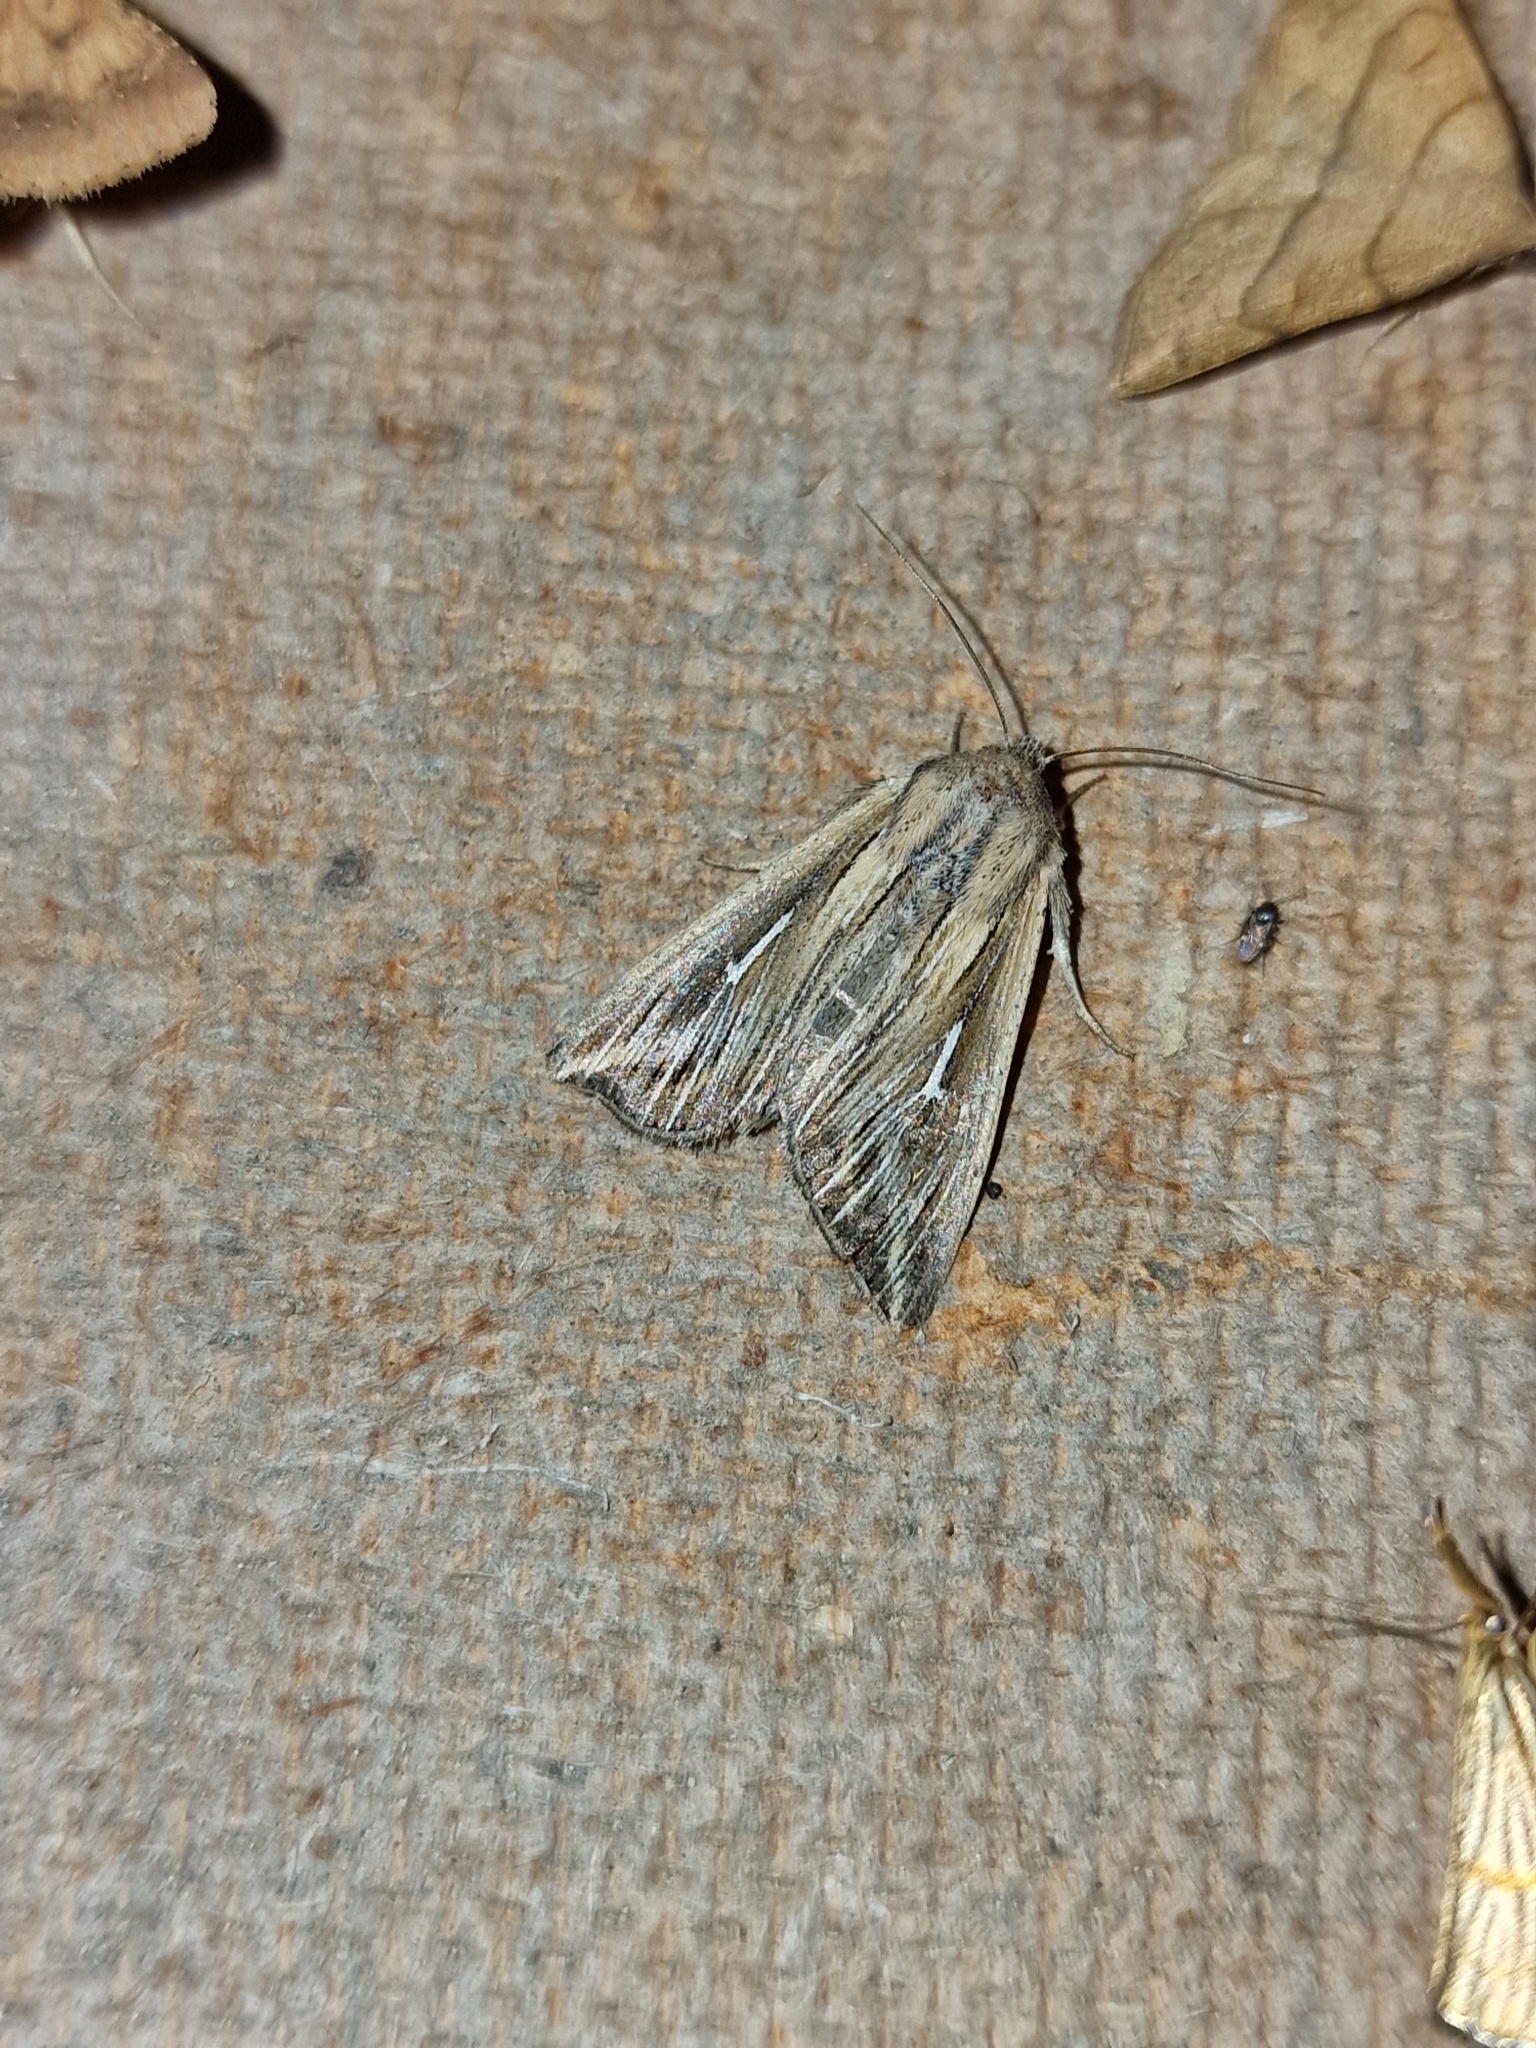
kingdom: Animalia
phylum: Arthropoda
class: Insecta
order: Lepidoptera
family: Noctuidae
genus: Mythimna
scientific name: Mythimna l-album
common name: L-album wainscot
